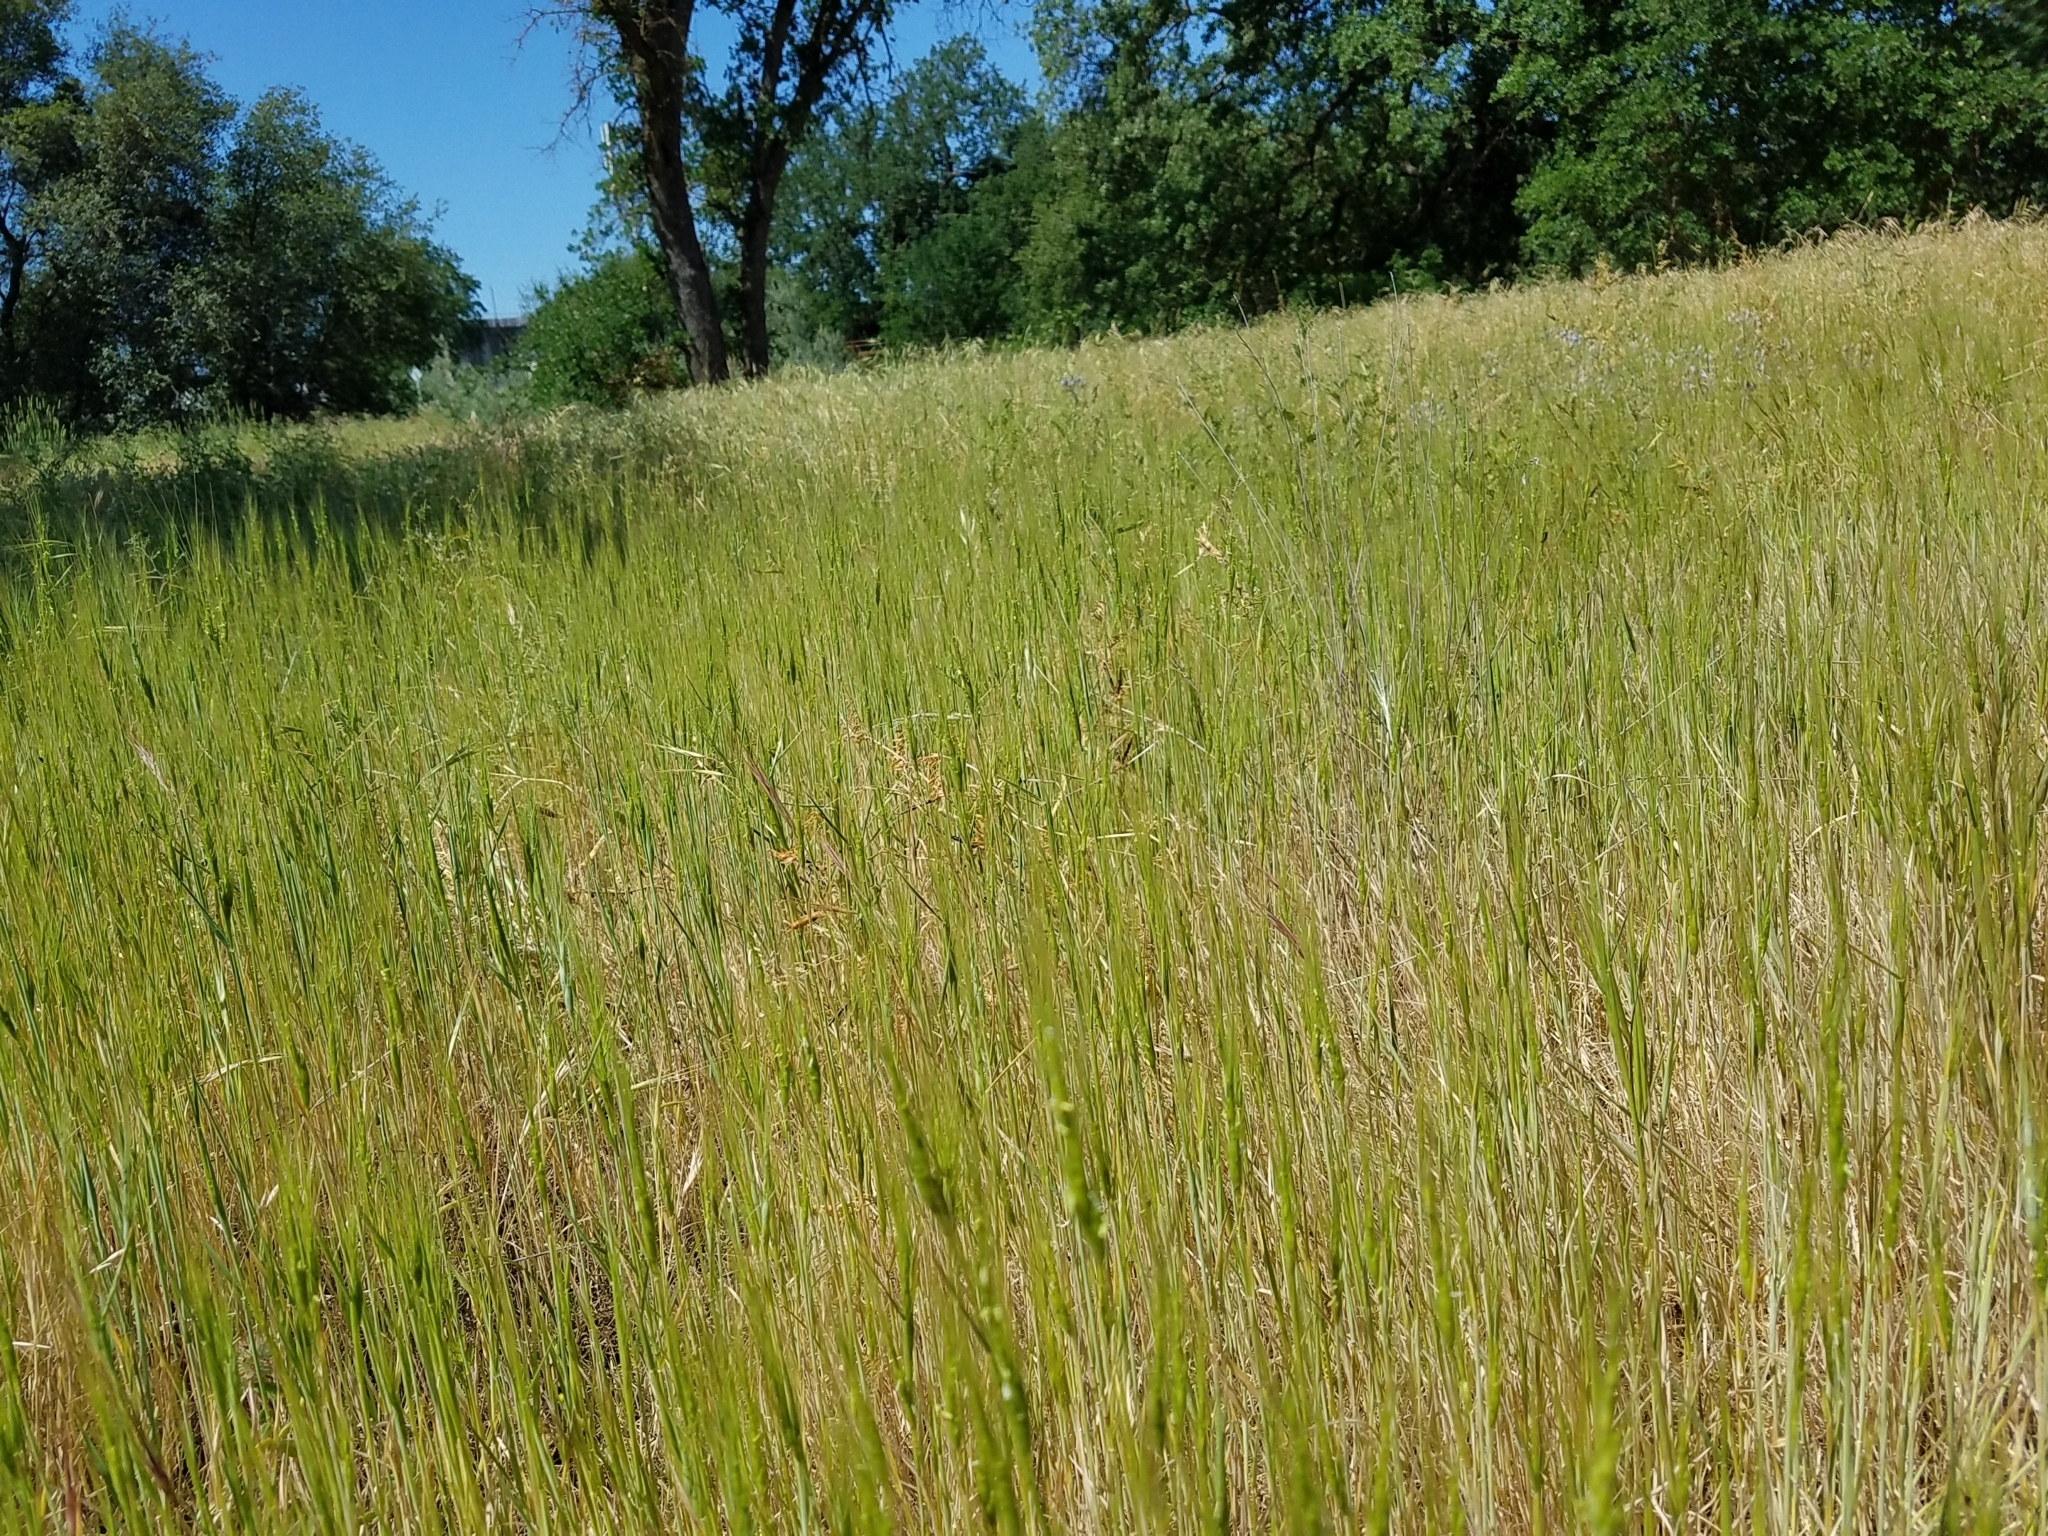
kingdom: Plantae
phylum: Tracheophyta
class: Liliopsida
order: Poales
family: Poaceae
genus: Aegilops
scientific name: Aegilops triuncialis
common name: Barb goat grass
